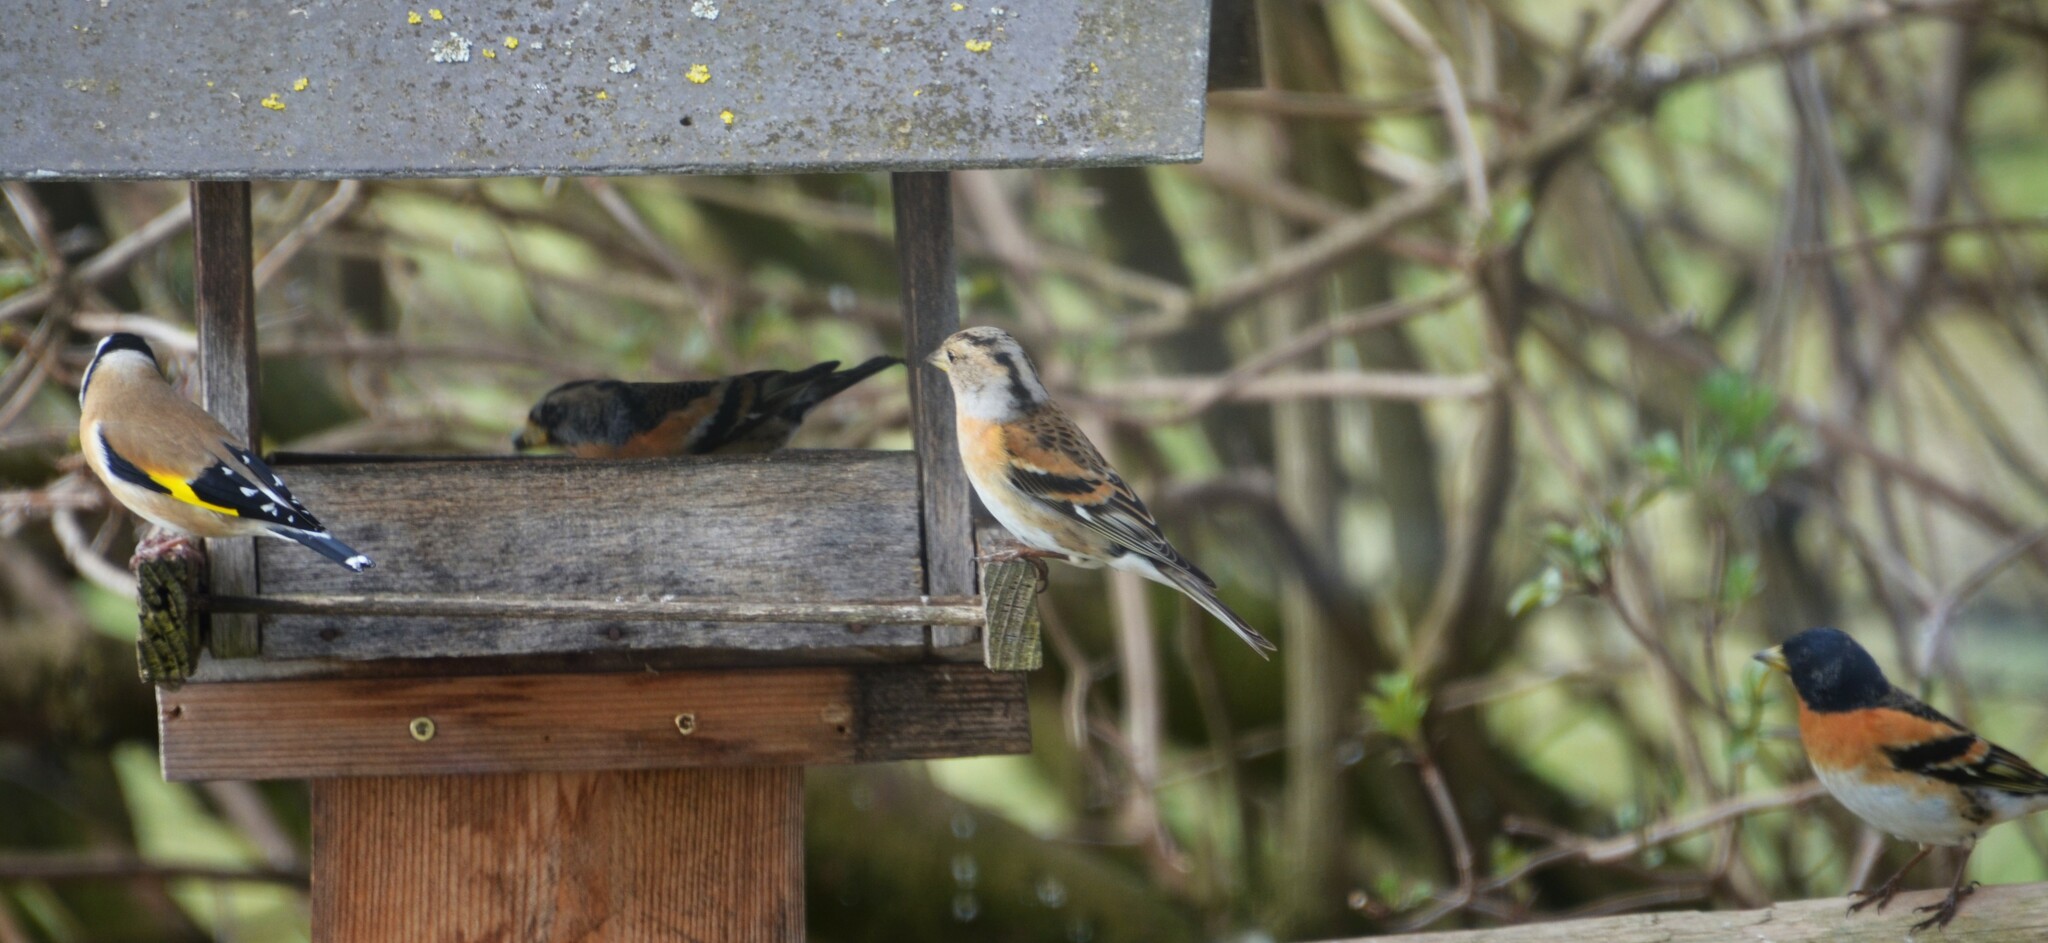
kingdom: Animalia
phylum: Chordata
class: Aves
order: Passeriformes
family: Fringillidae
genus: Fringilla
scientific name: Fringilla montifringilla
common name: Brambling
